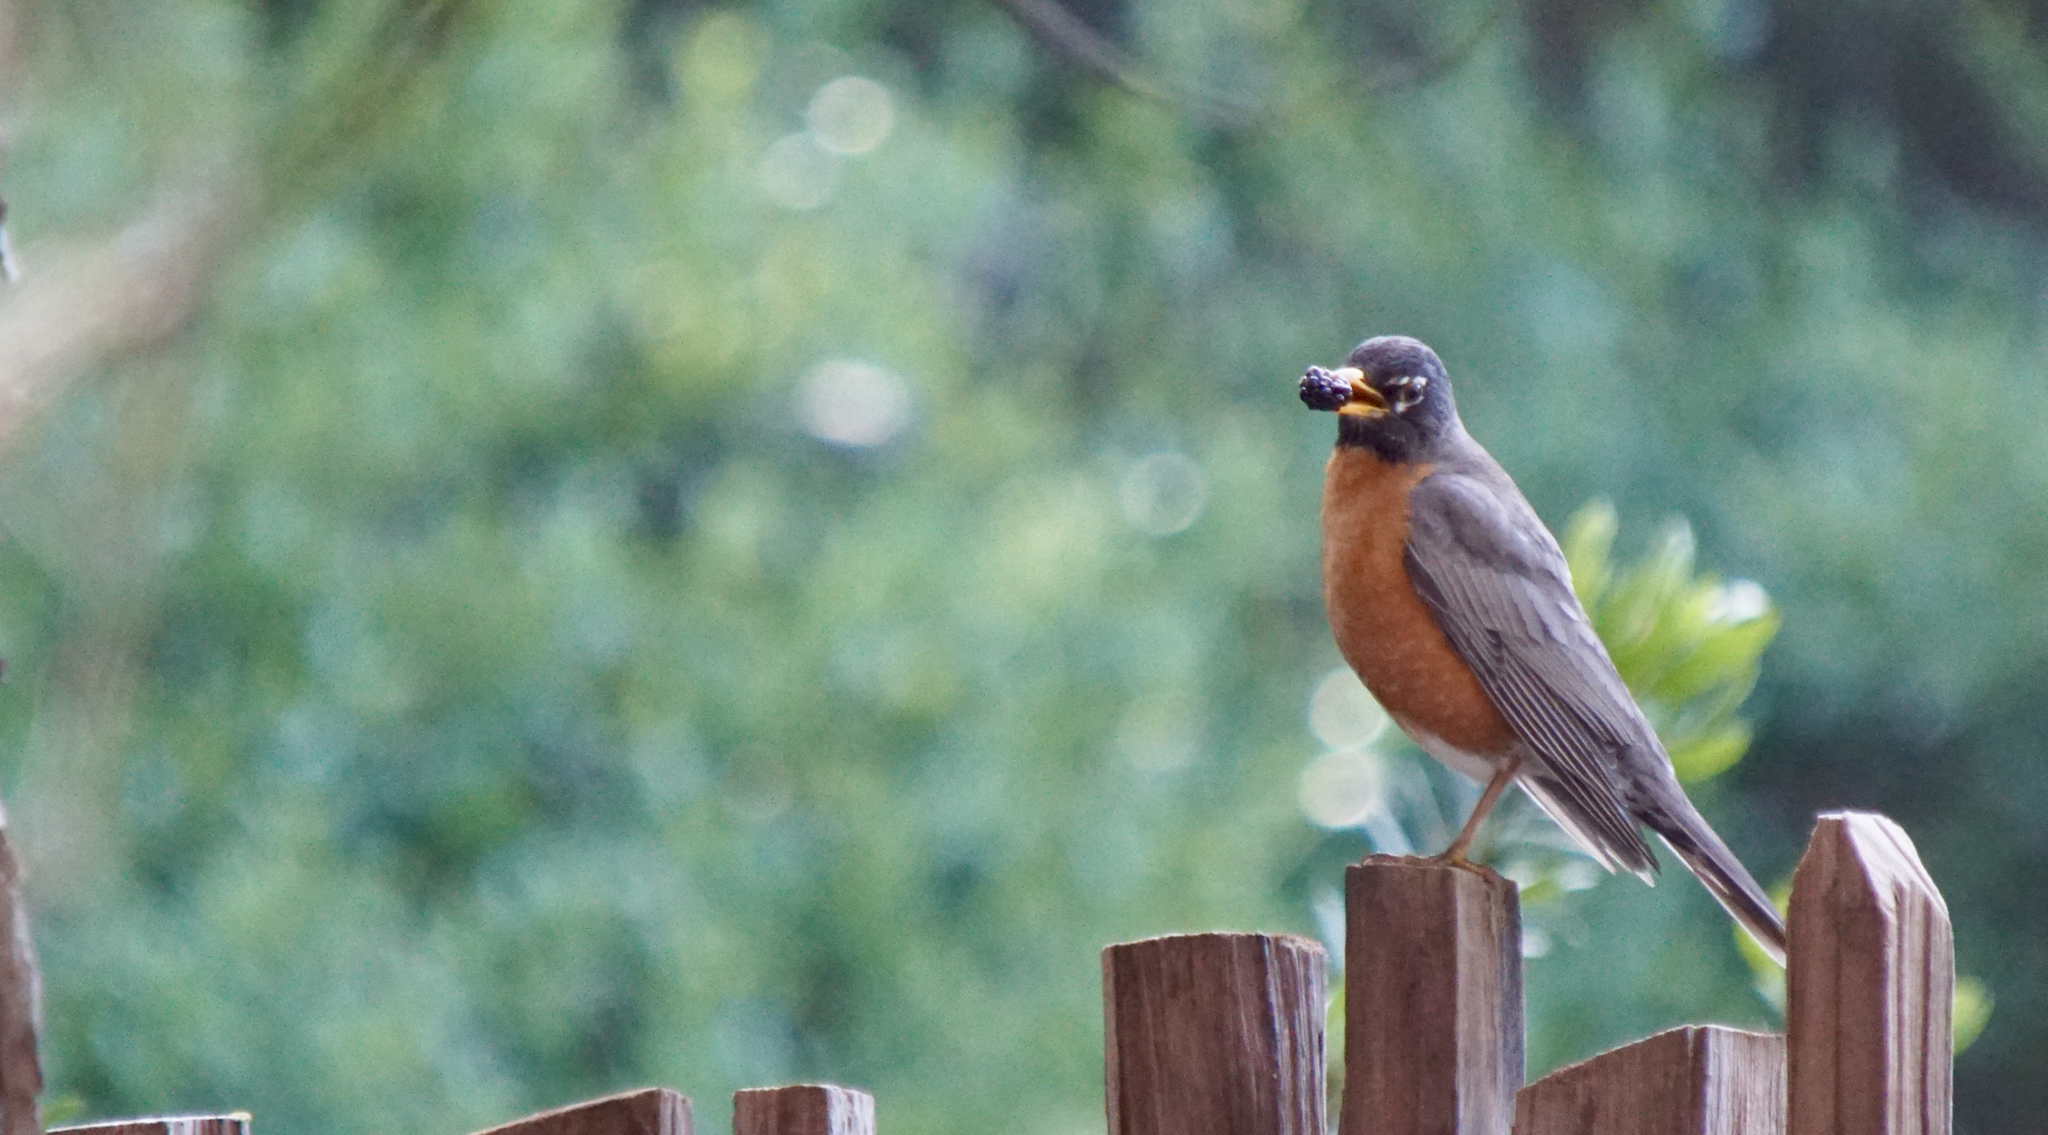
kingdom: Animalia
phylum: Chordata
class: Aves
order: Passeriformes
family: Turdidae
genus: Turdus
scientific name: Turdus migratorius
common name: American robin
